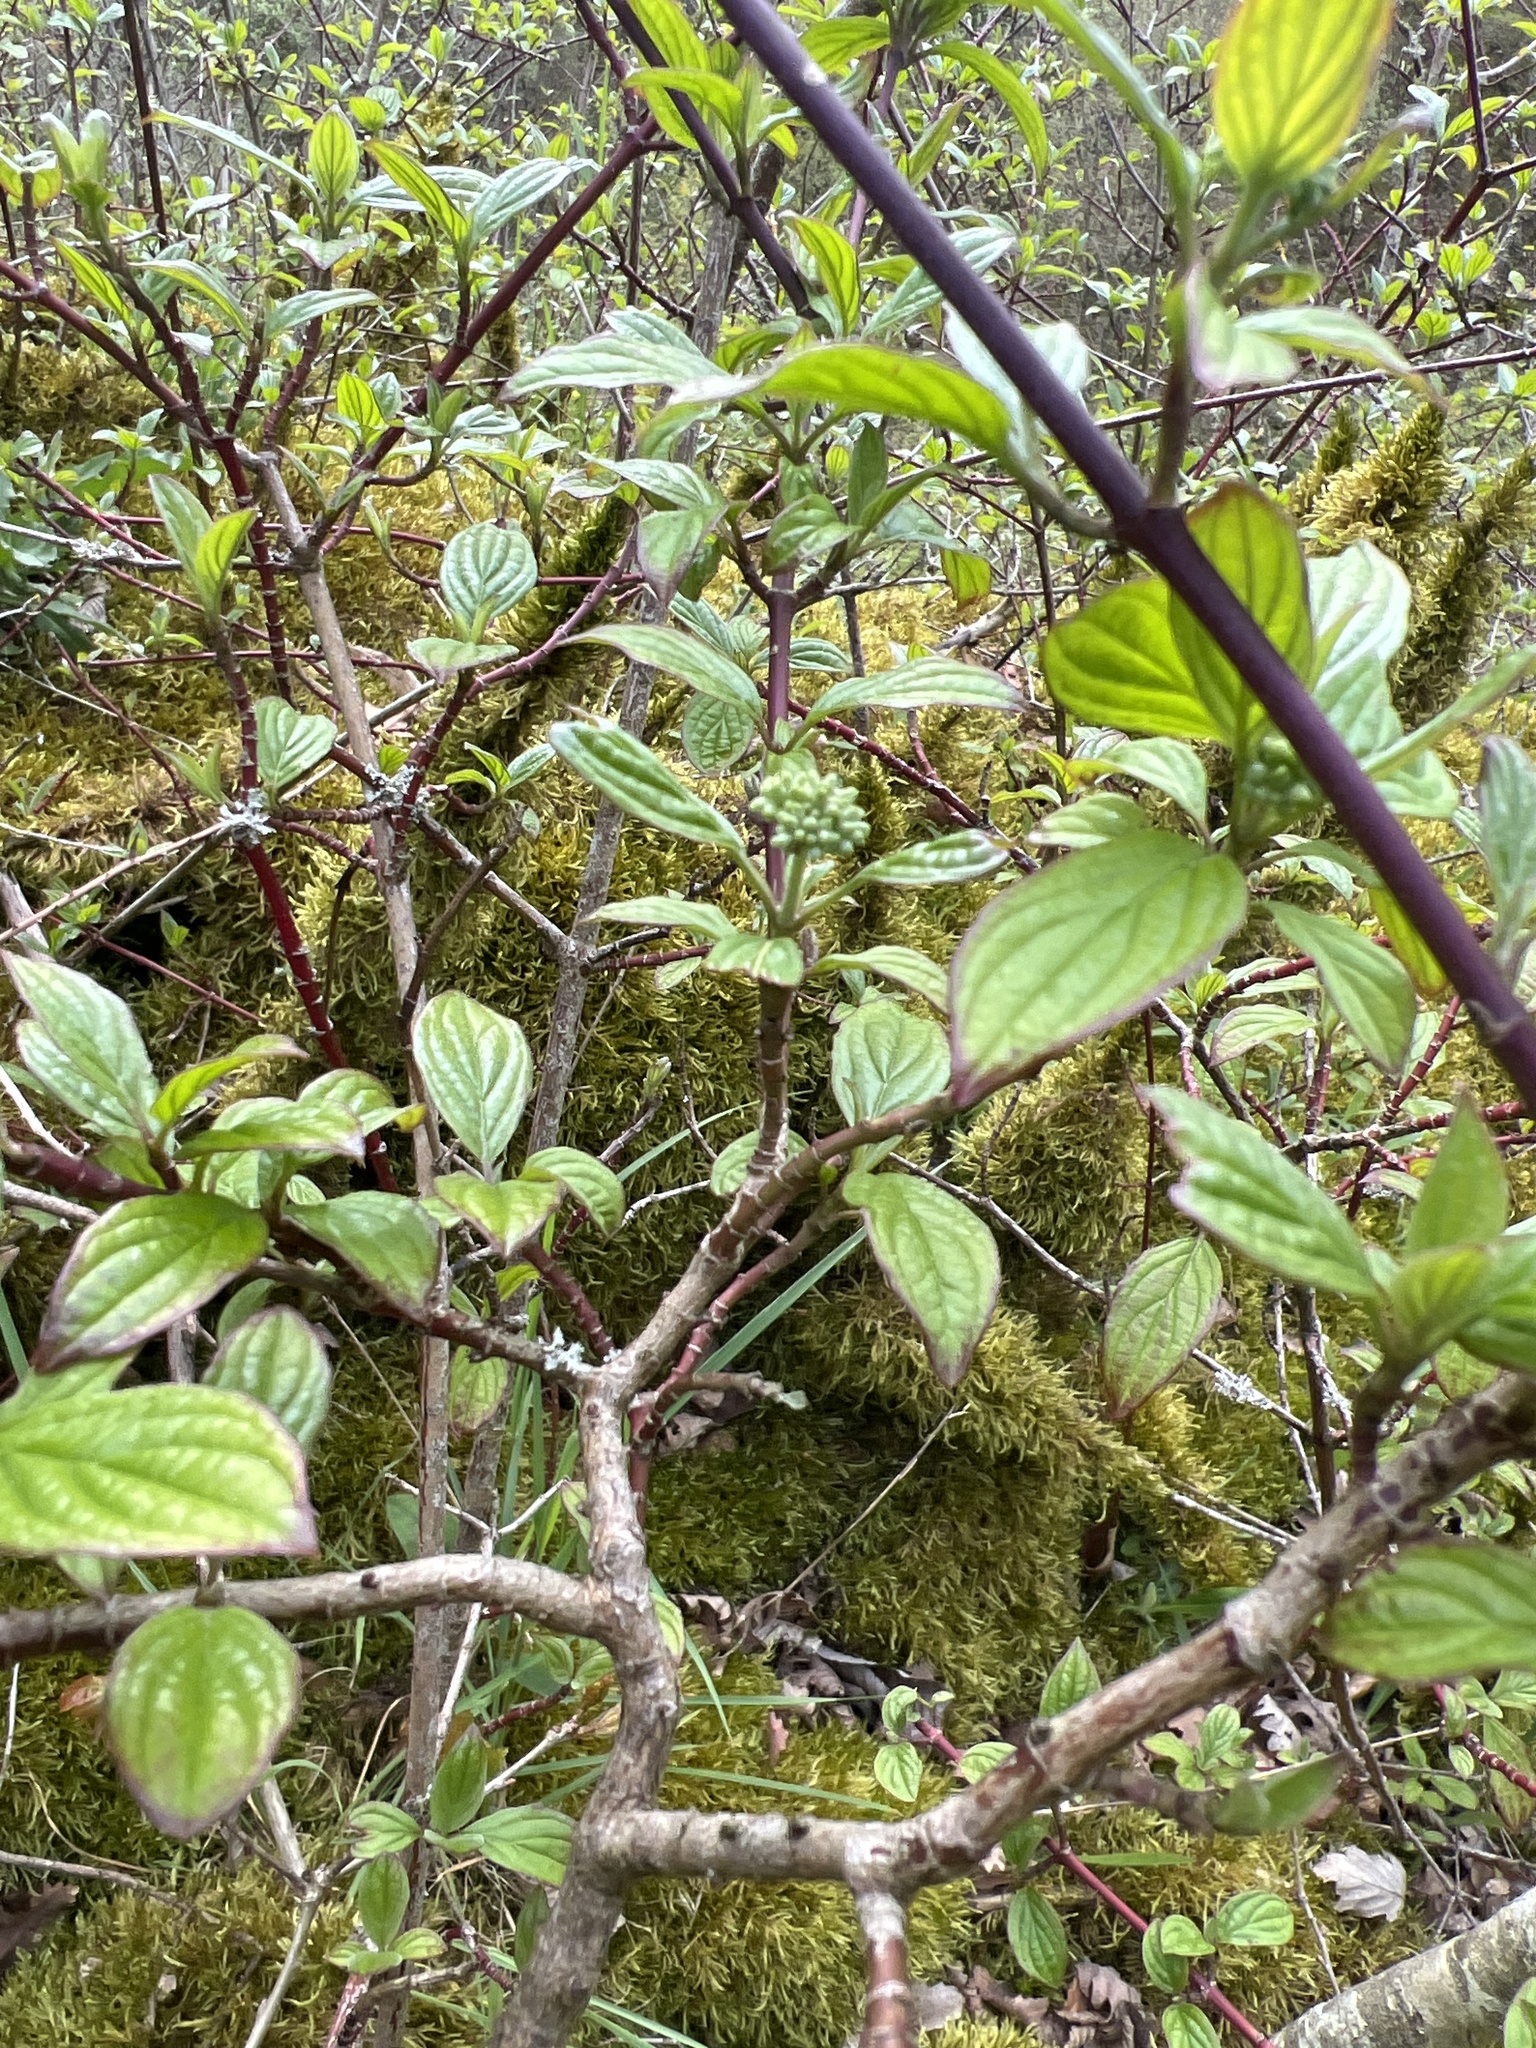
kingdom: Plantae
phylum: Tracheophyta
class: Magnoliopsida
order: Cornales
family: Cornaceae
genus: Cornus
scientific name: Cornus sanguinea
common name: Dogwood
